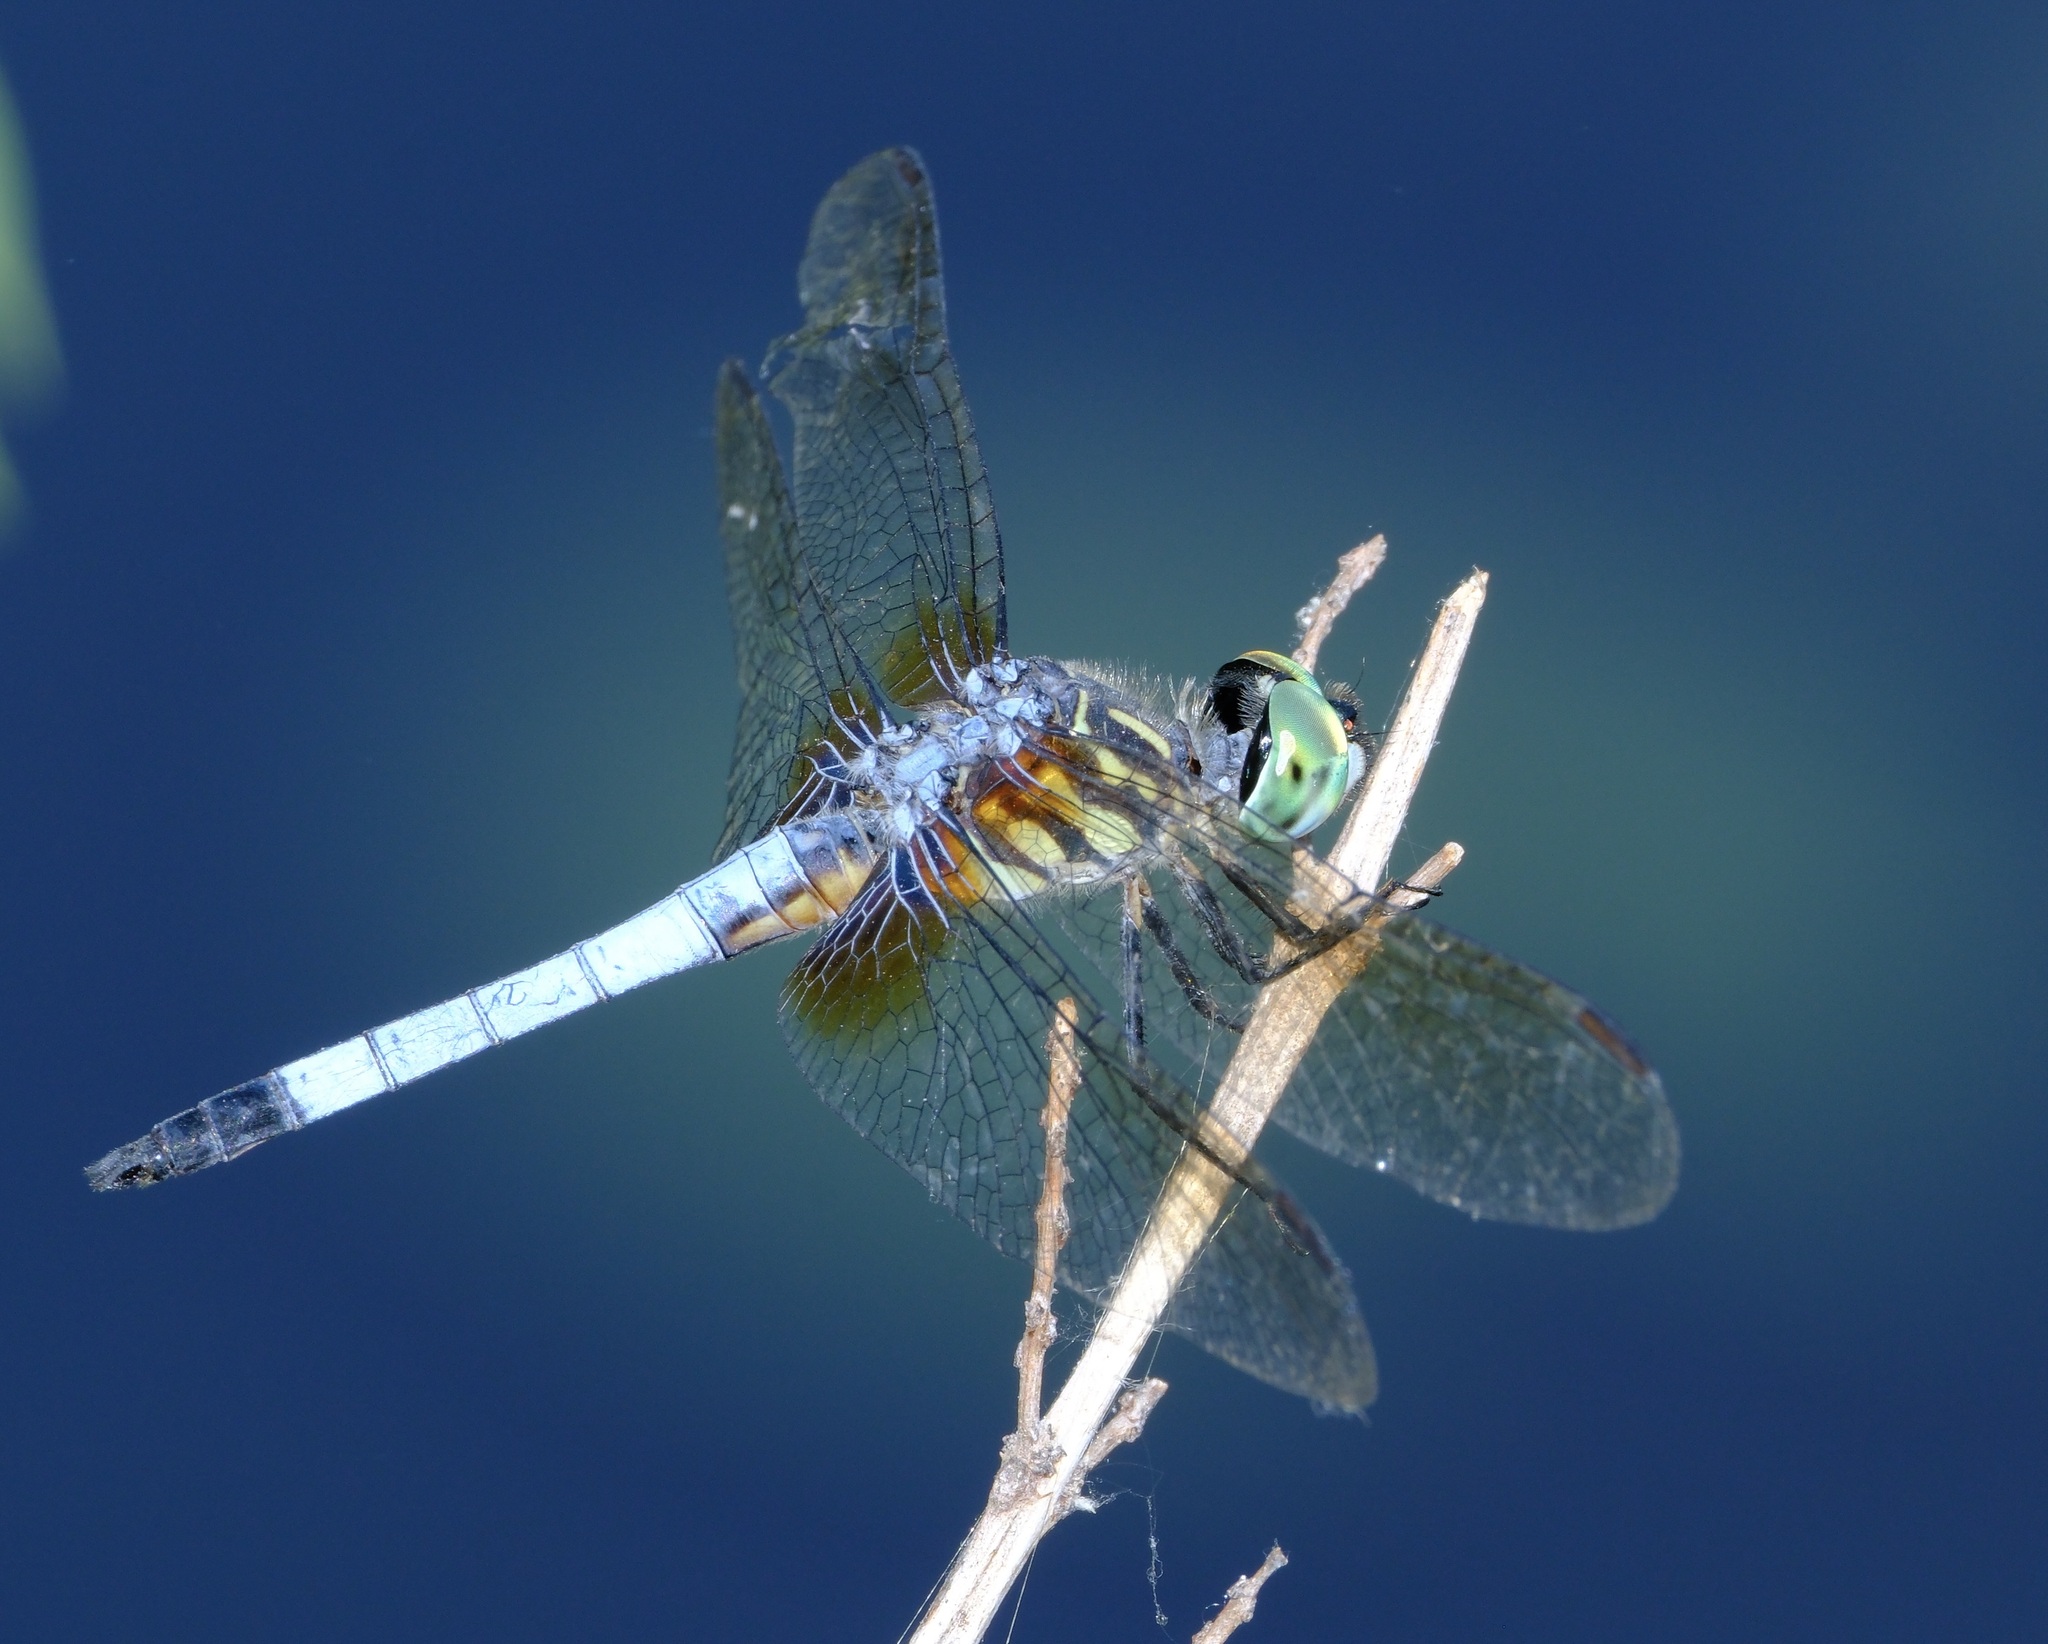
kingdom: Animalia
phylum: Arthropoda
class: Insecta
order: Odonata
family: Libellulidae
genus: Pachydiplax
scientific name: Pachydiplax longipennis
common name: Blue dasher
